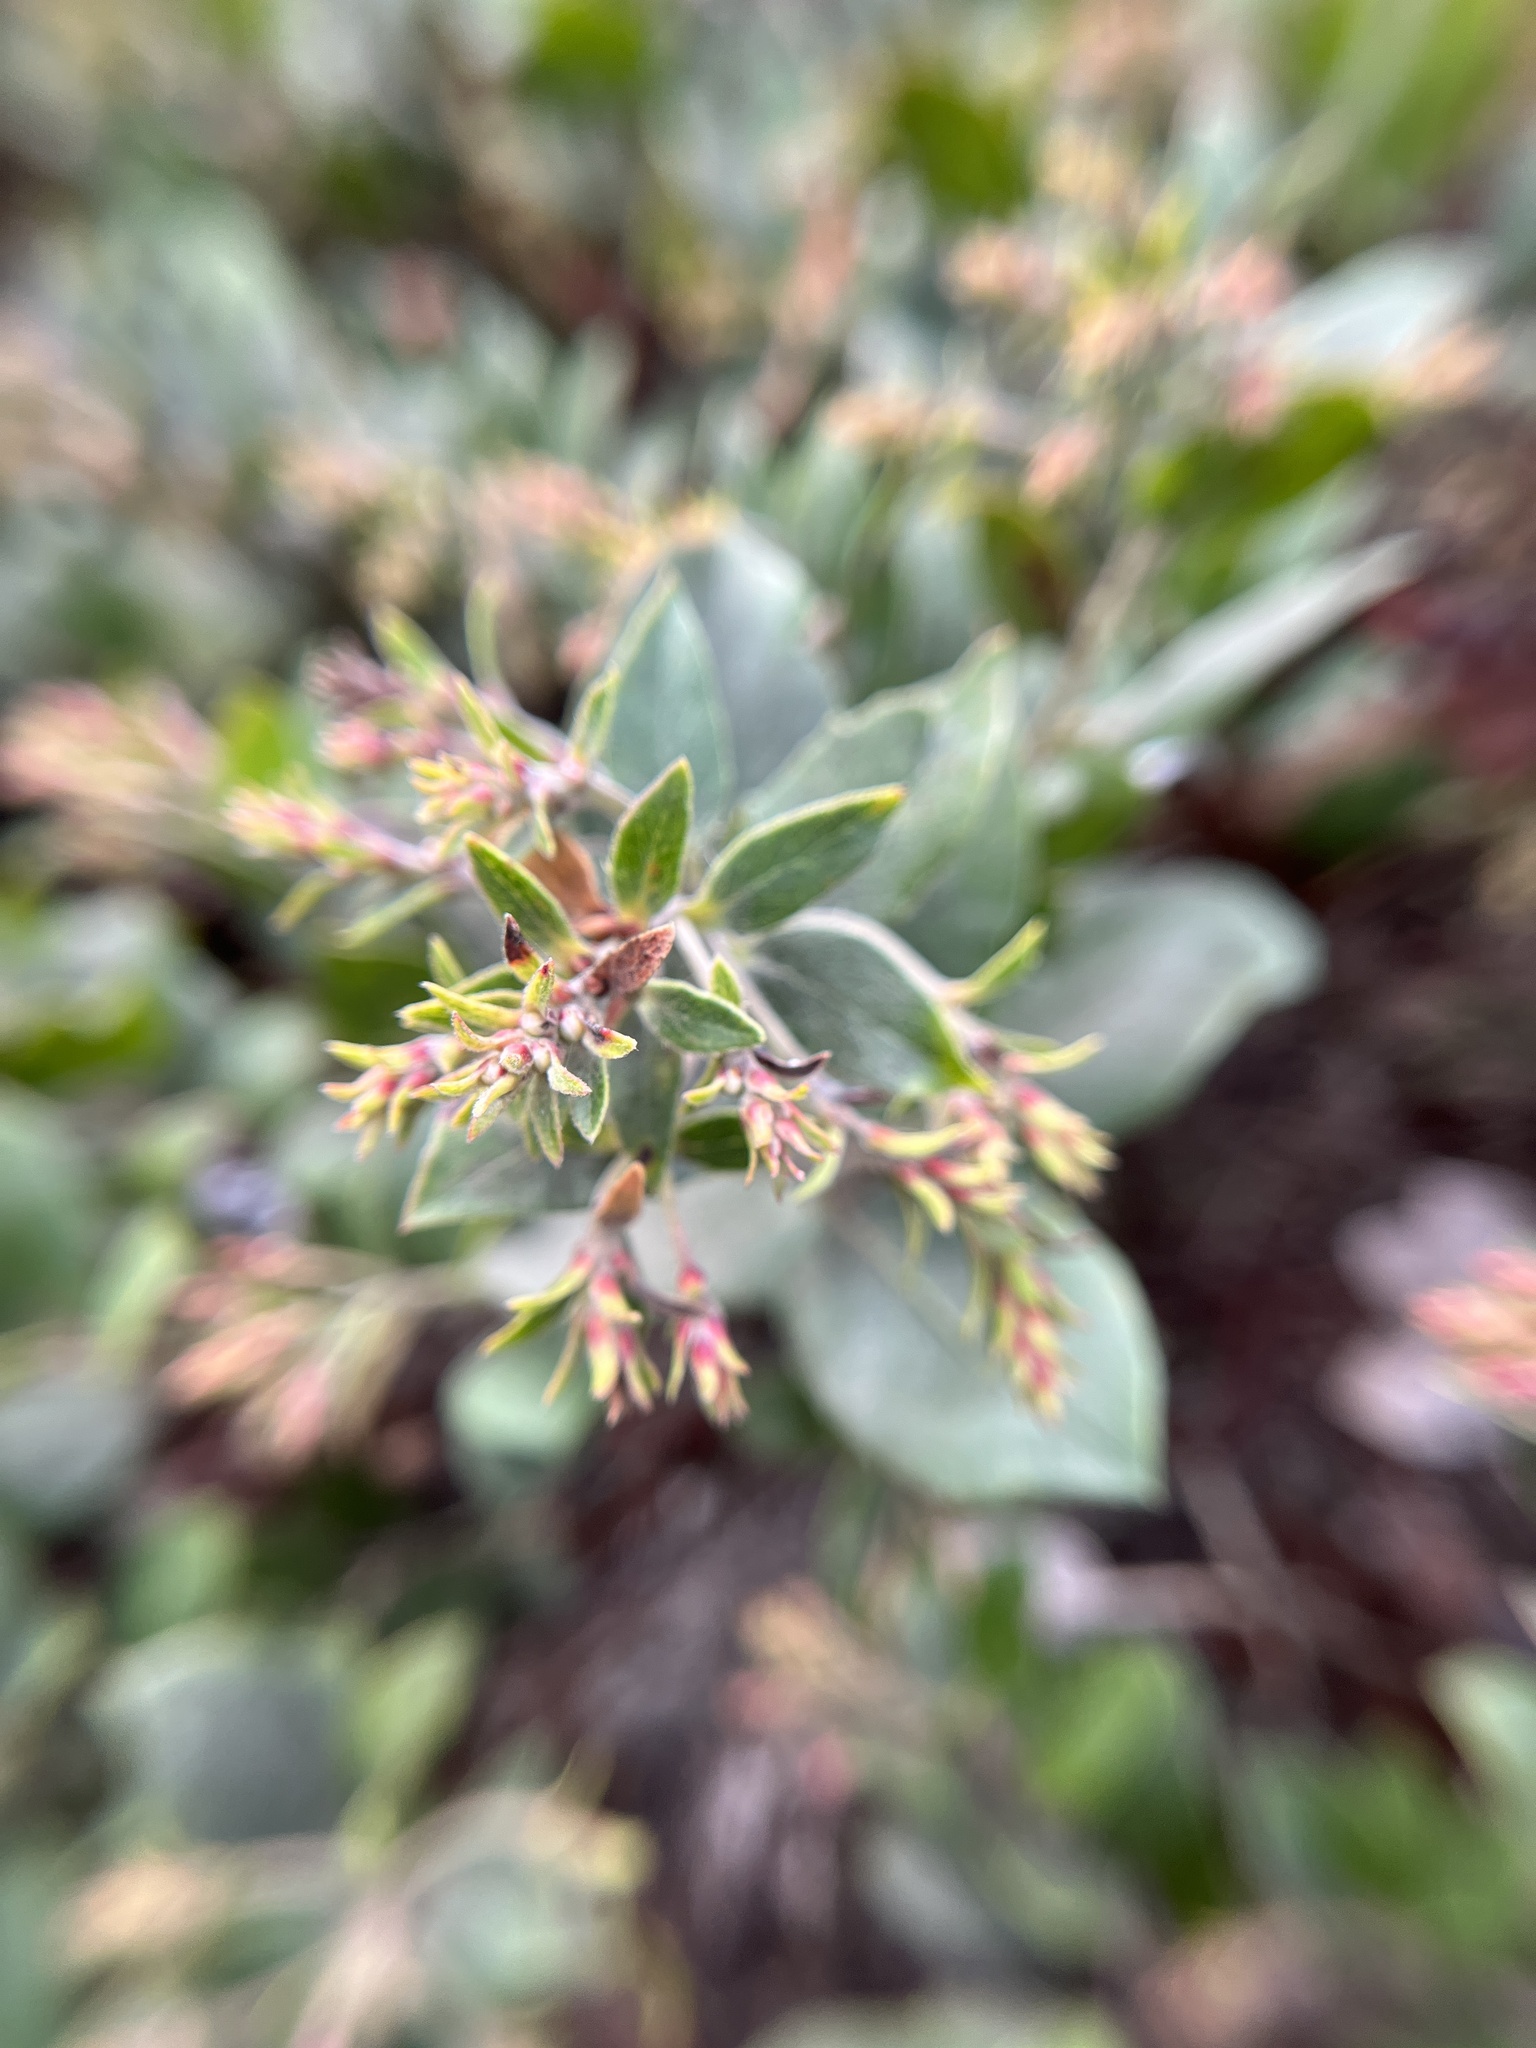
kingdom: Plantae
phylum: Tracheophyta
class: Magnoliopsida
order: Ericales
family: Ericaceae
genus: Arctostaphylos
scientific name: Arctostaphylos crustacea
